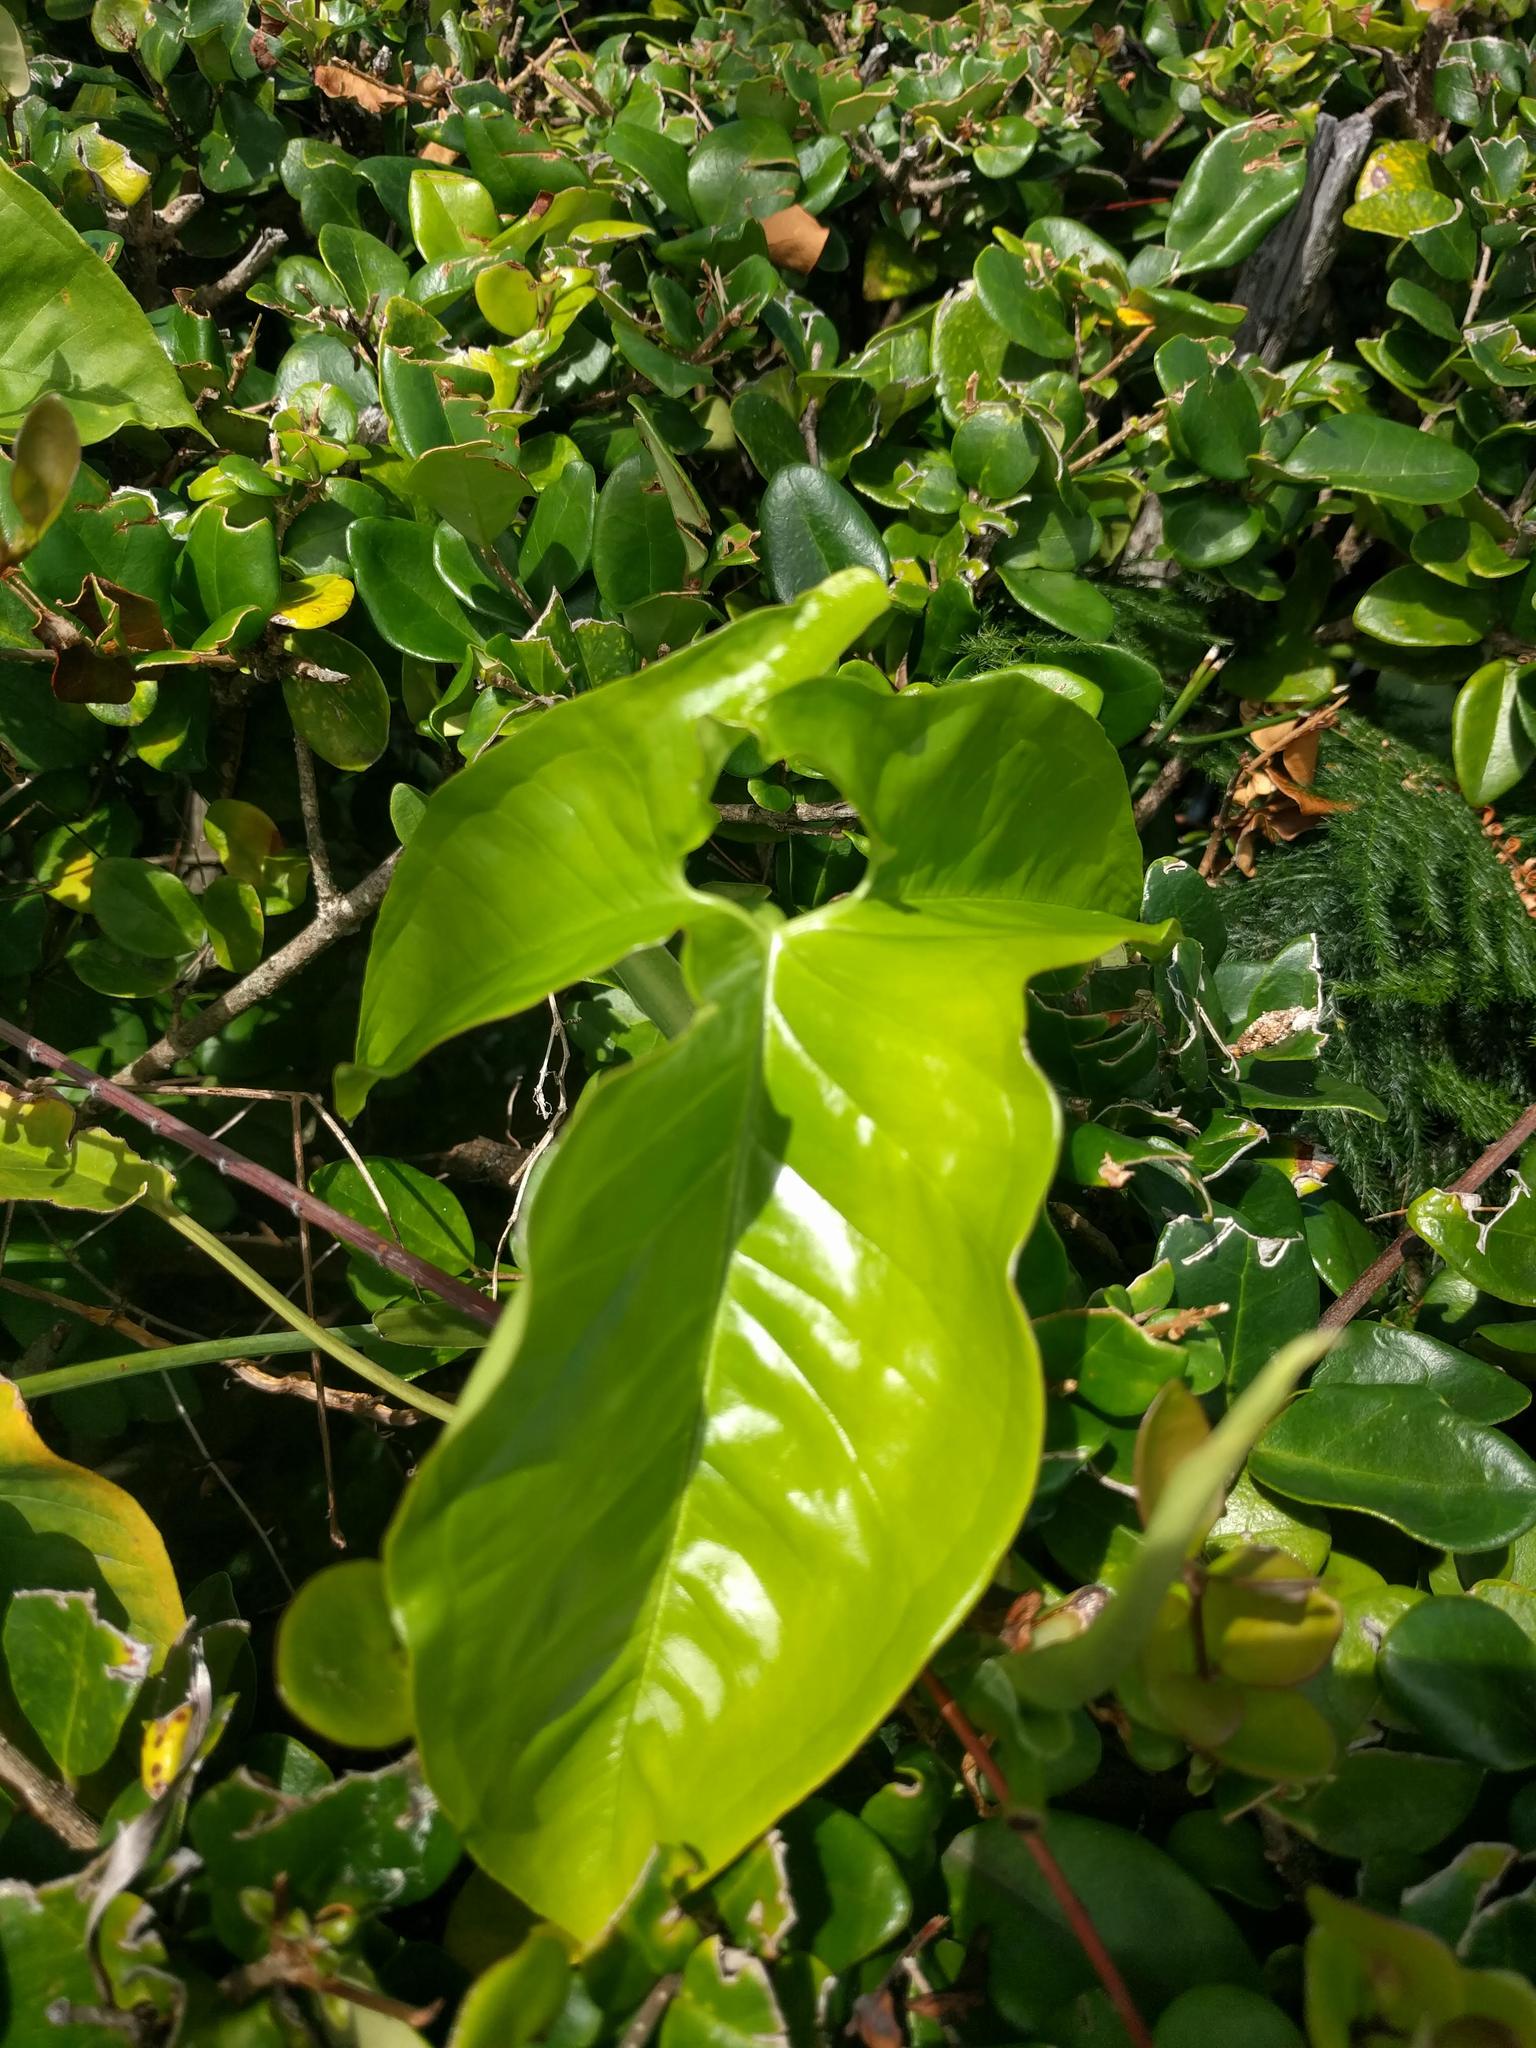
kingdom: Plantae
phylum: Tracheophyta
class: Liliopsida
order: Alismatales
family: Araceae
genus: Syngonium
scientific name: Syngonium podophyllum
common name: American evergreen
